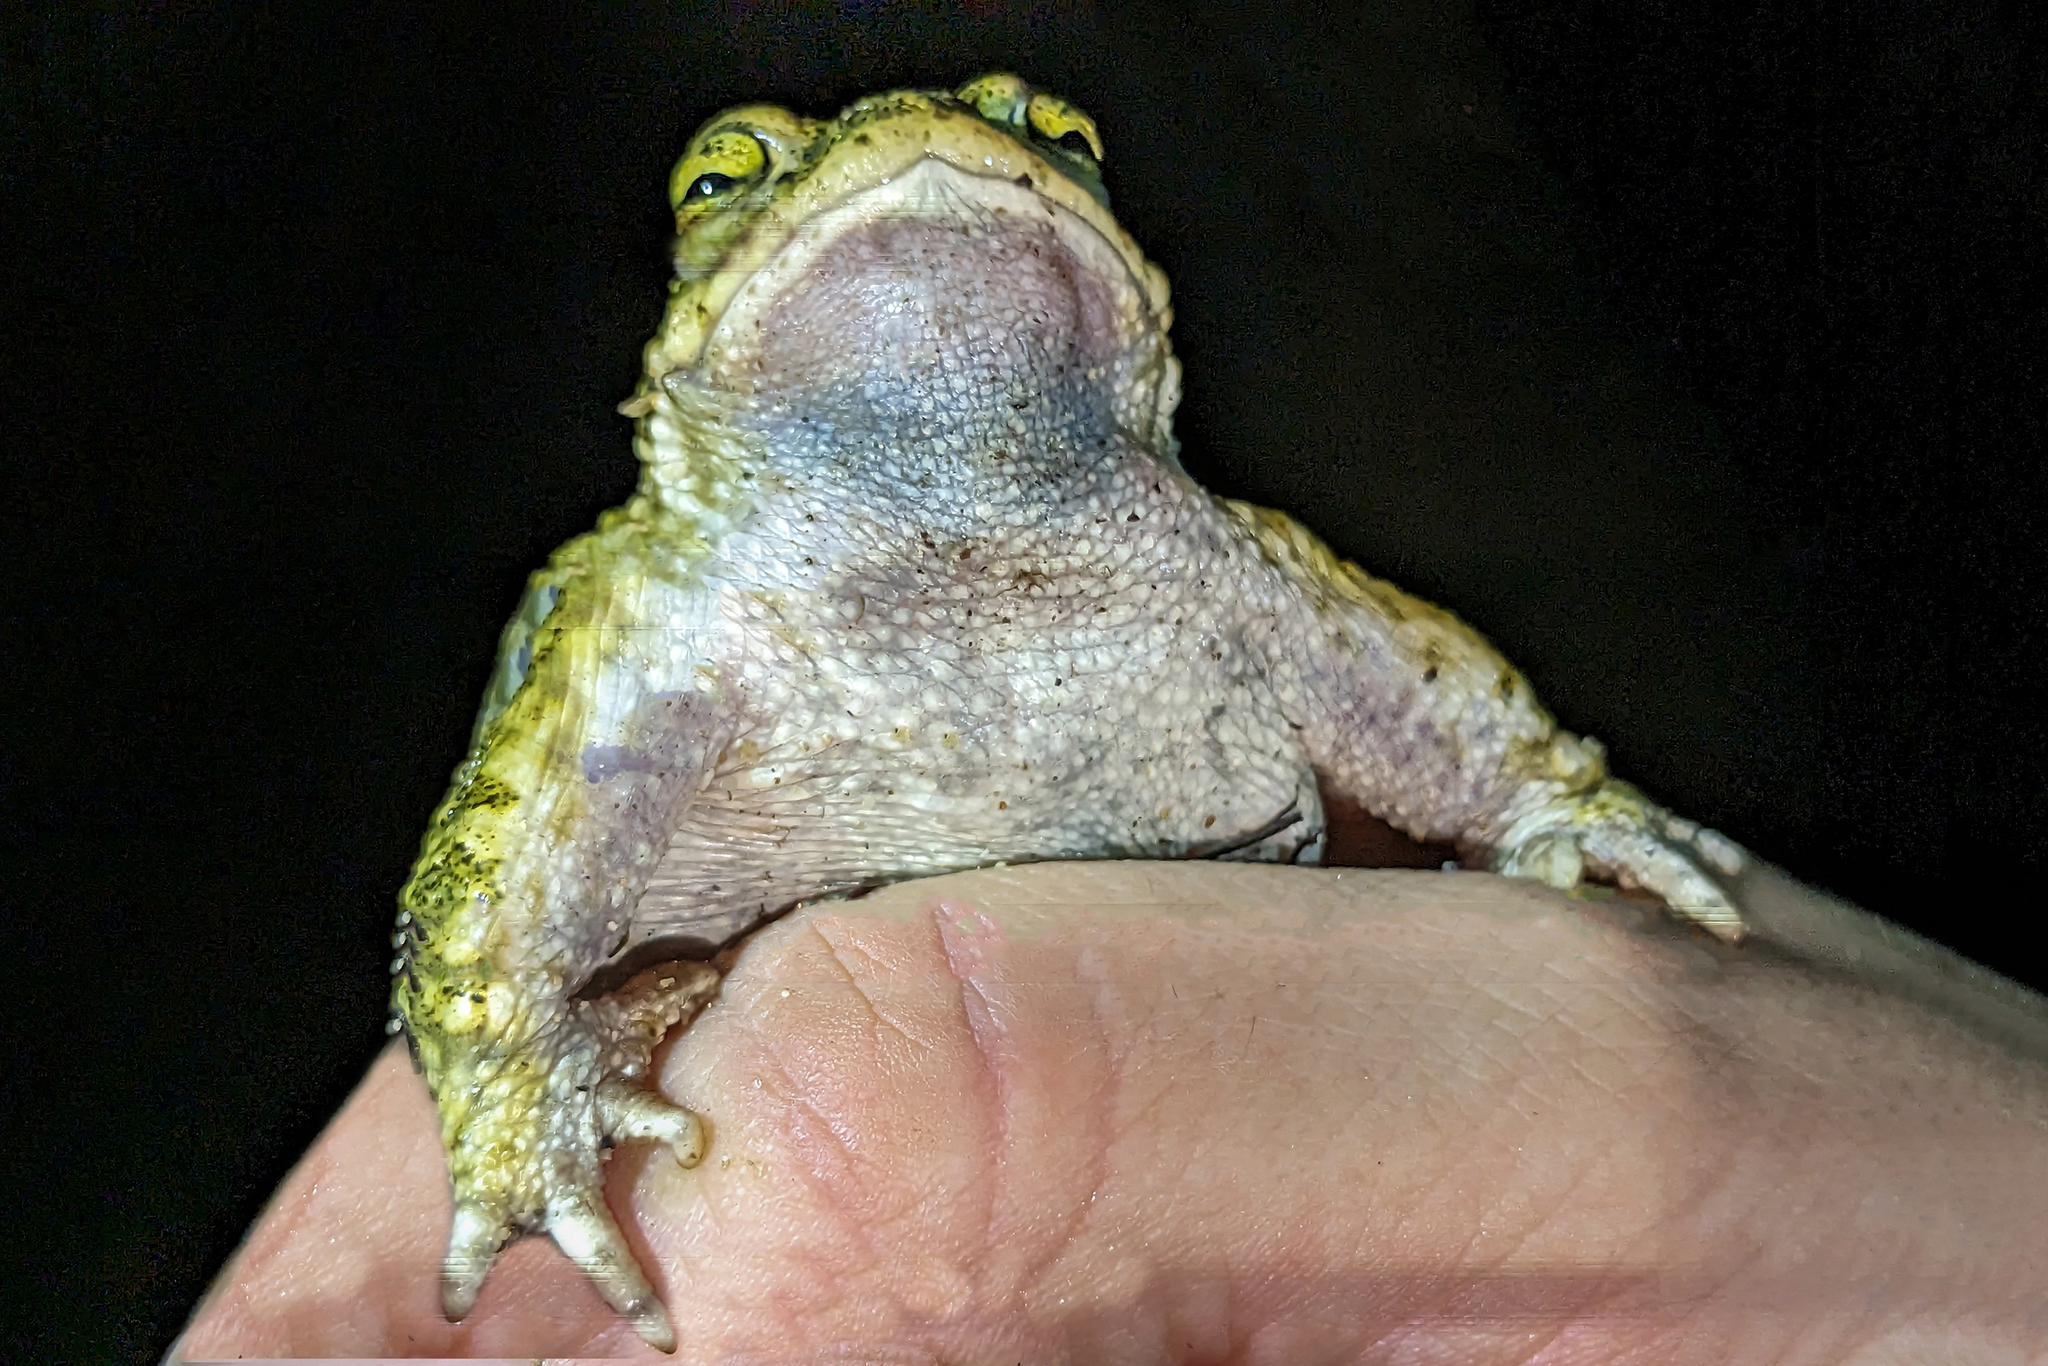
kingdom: Animalia
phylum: Chordata
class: Amphibia
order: Anura
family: Bufonidae
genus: Epidalea
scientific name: Epidalea calamita
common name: Natterjack toad
